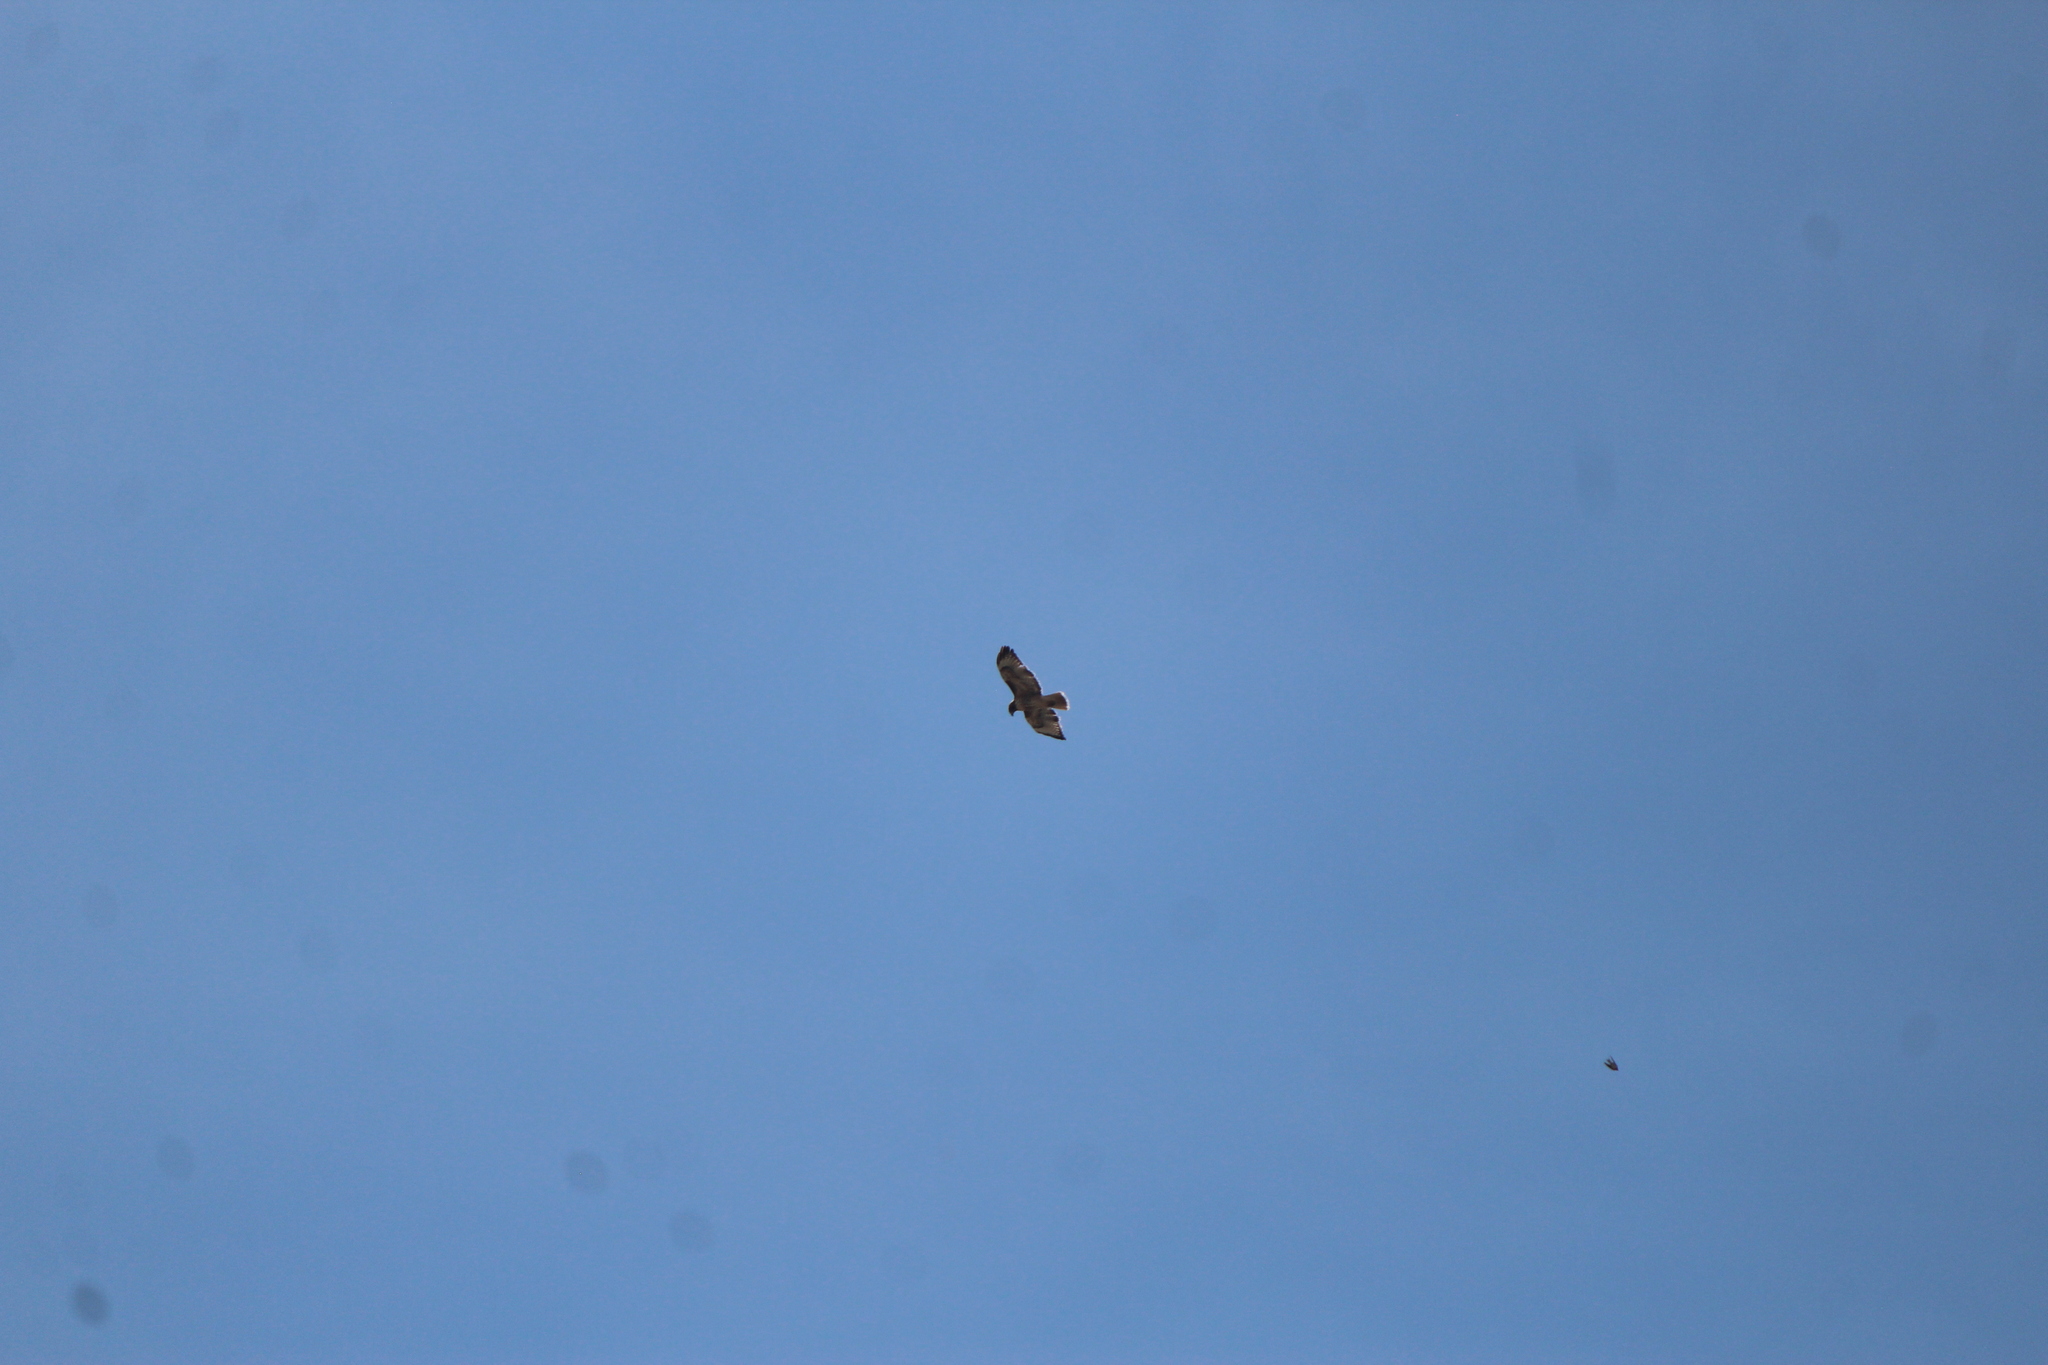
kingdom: Animalia
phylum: Chordata
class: Aves
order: Accipitriformes
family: Accipitridae
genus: Buteo
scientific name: Buteo jamaicensis
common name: Red-tailed hawk
